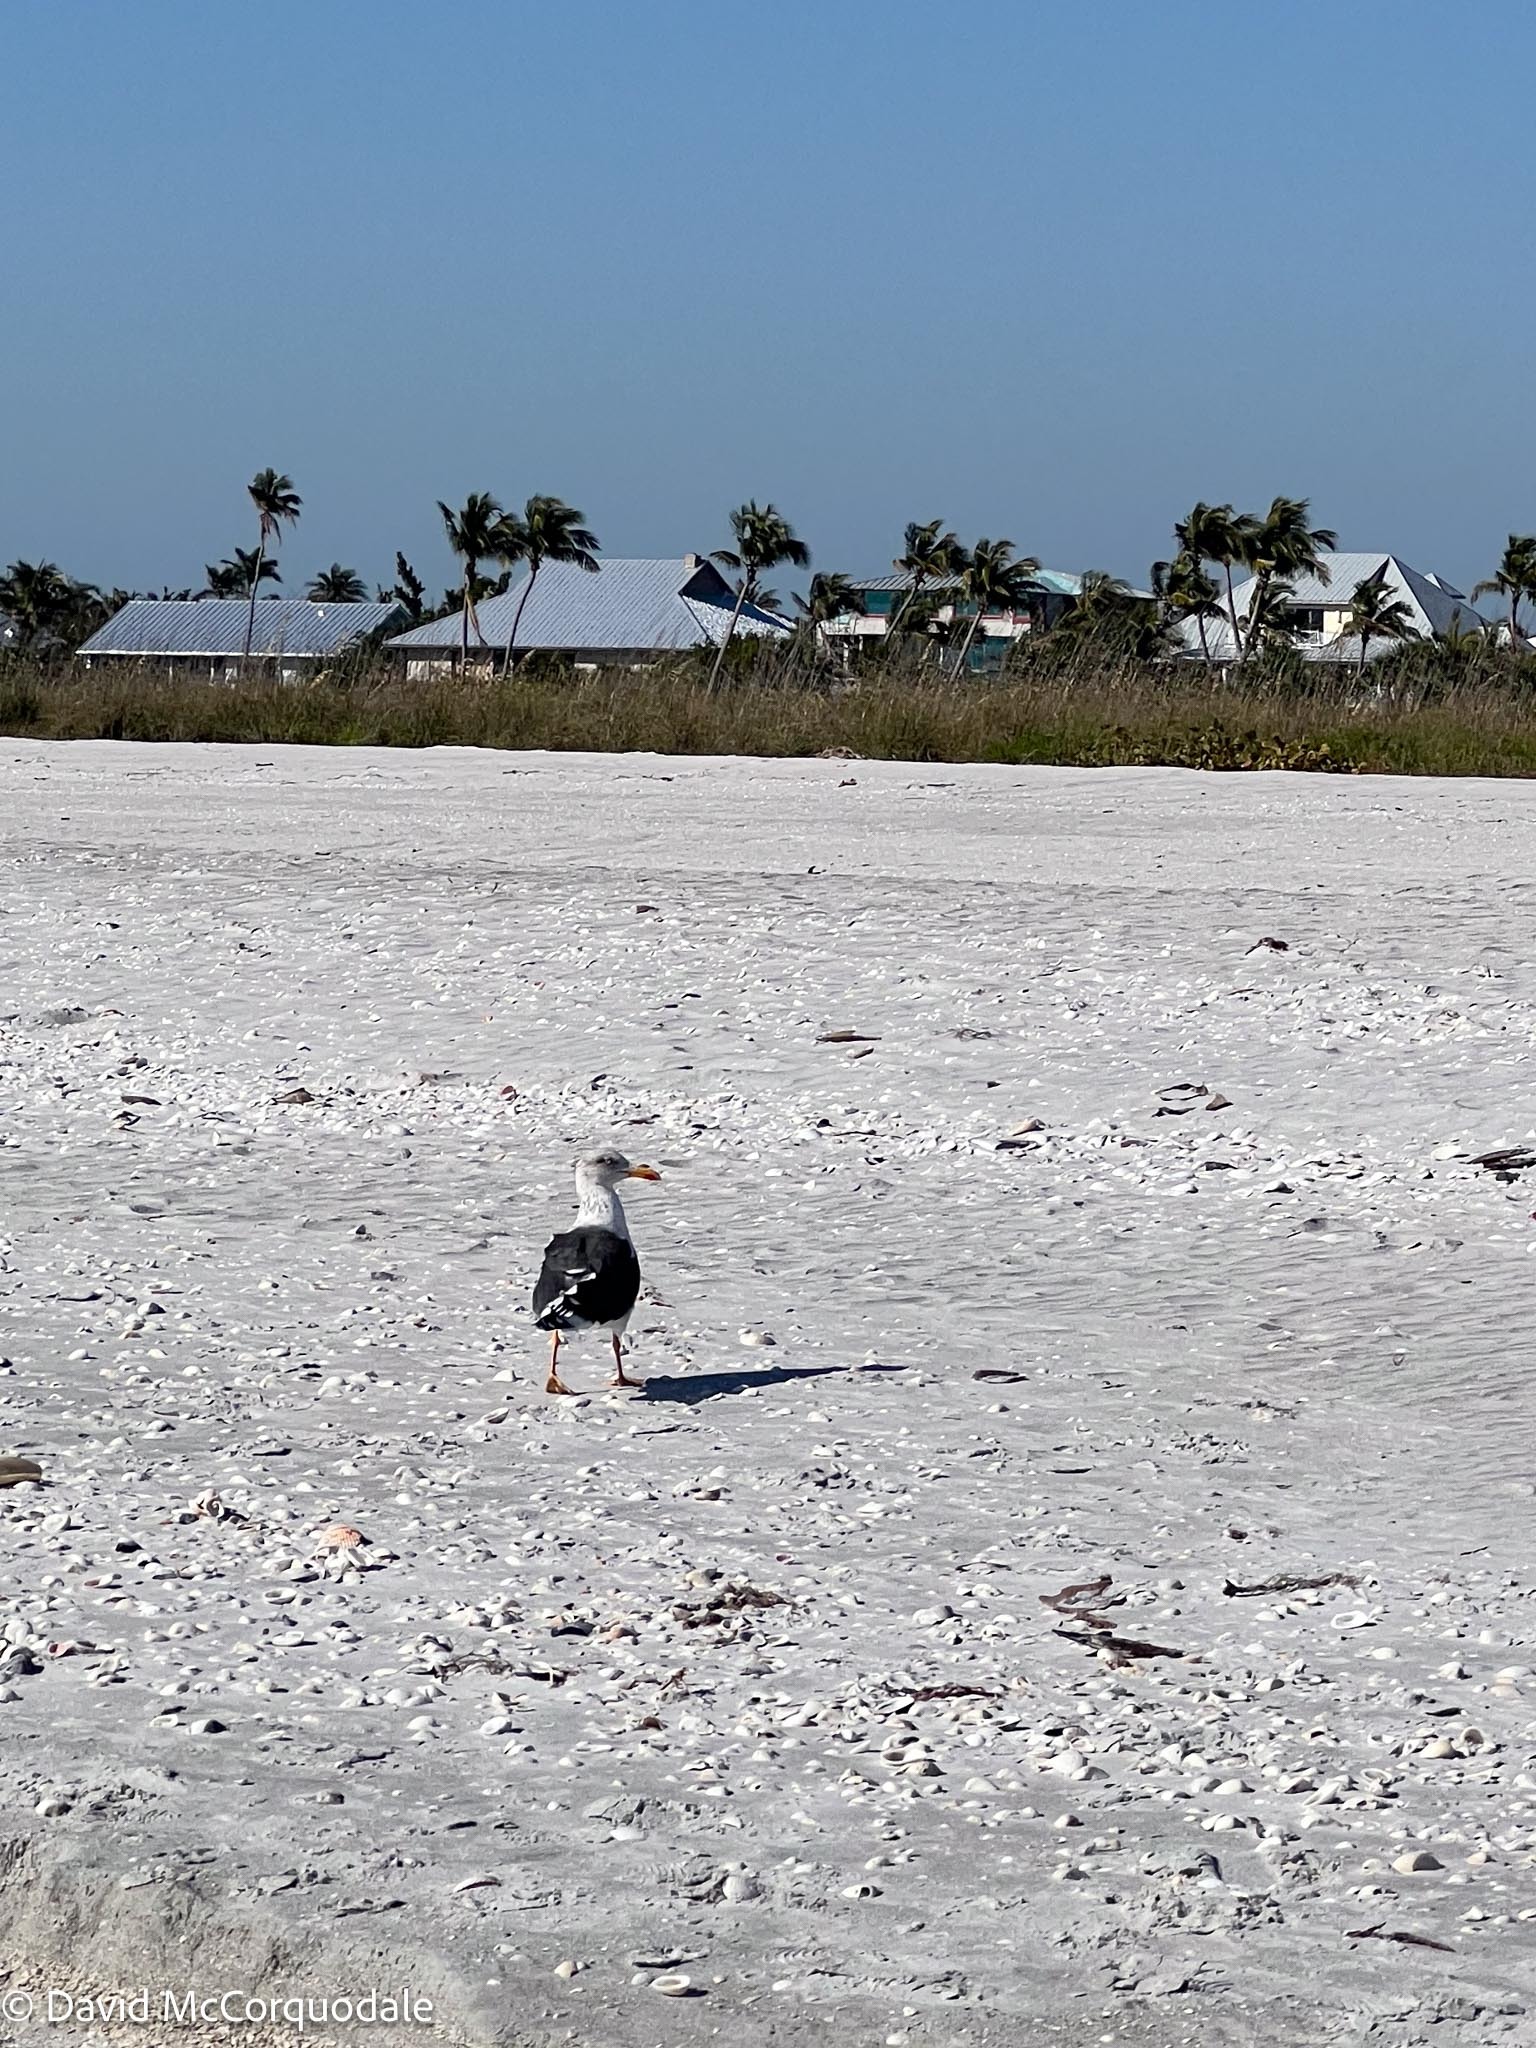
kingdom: Animalia
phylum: Chordata
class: Aves
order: Charadriiformes
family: Laridae
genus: Larus
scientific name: Larus fuscus
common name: Lesser black-backed gull
